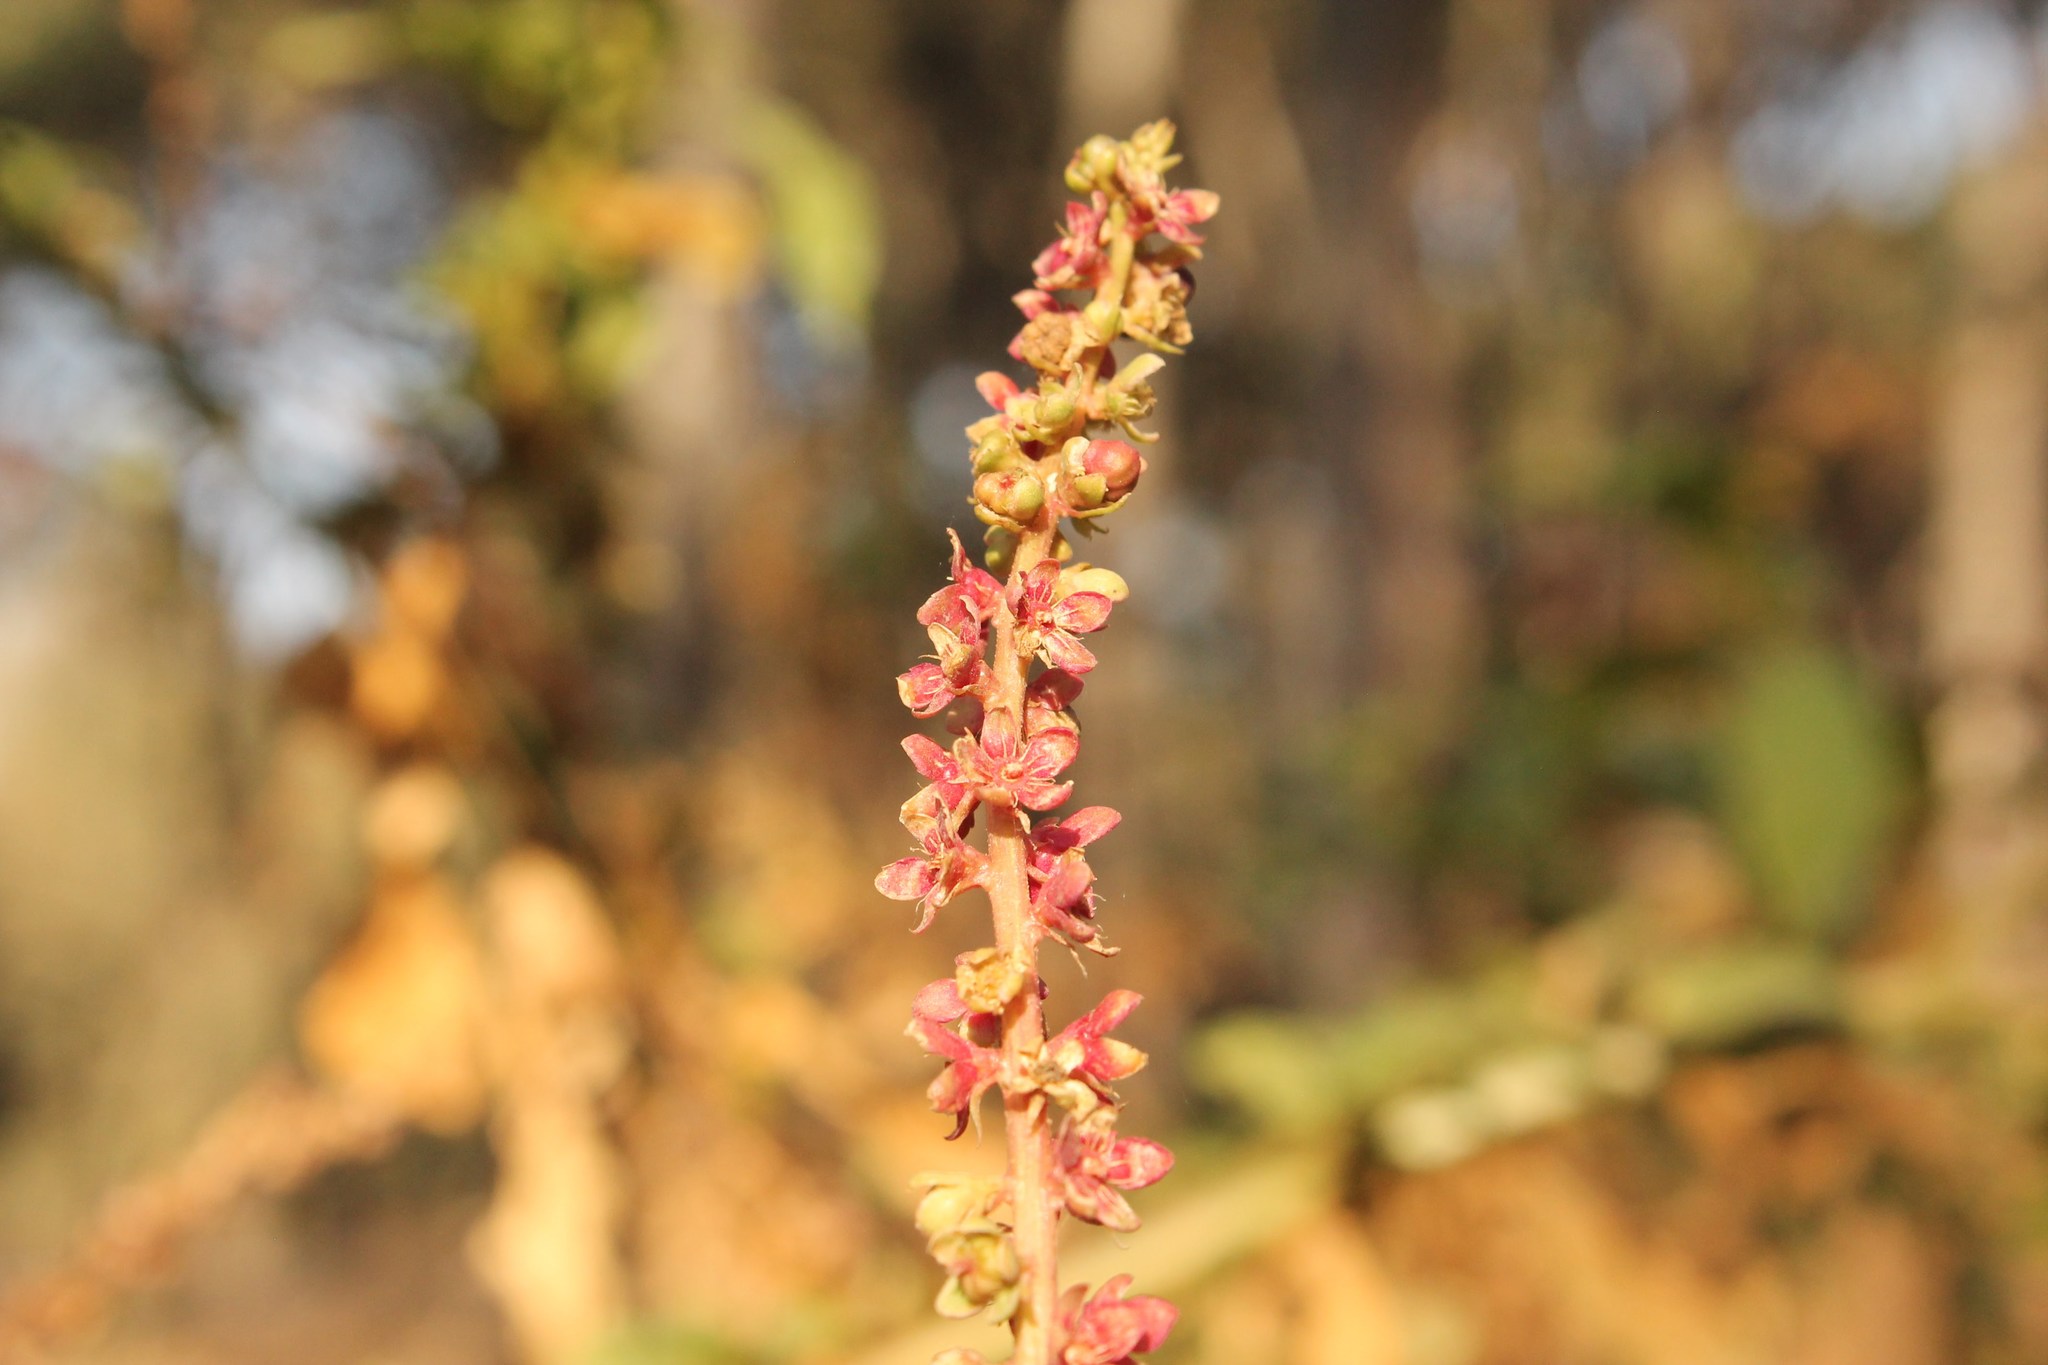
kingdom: Plantae
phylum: Tracheophyta
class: Magnoliopsida
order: Caryophyllales
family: Phytolaccaceae
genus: Phytolacca
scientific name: Phytolacca icosandra
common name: Button pokeweed
